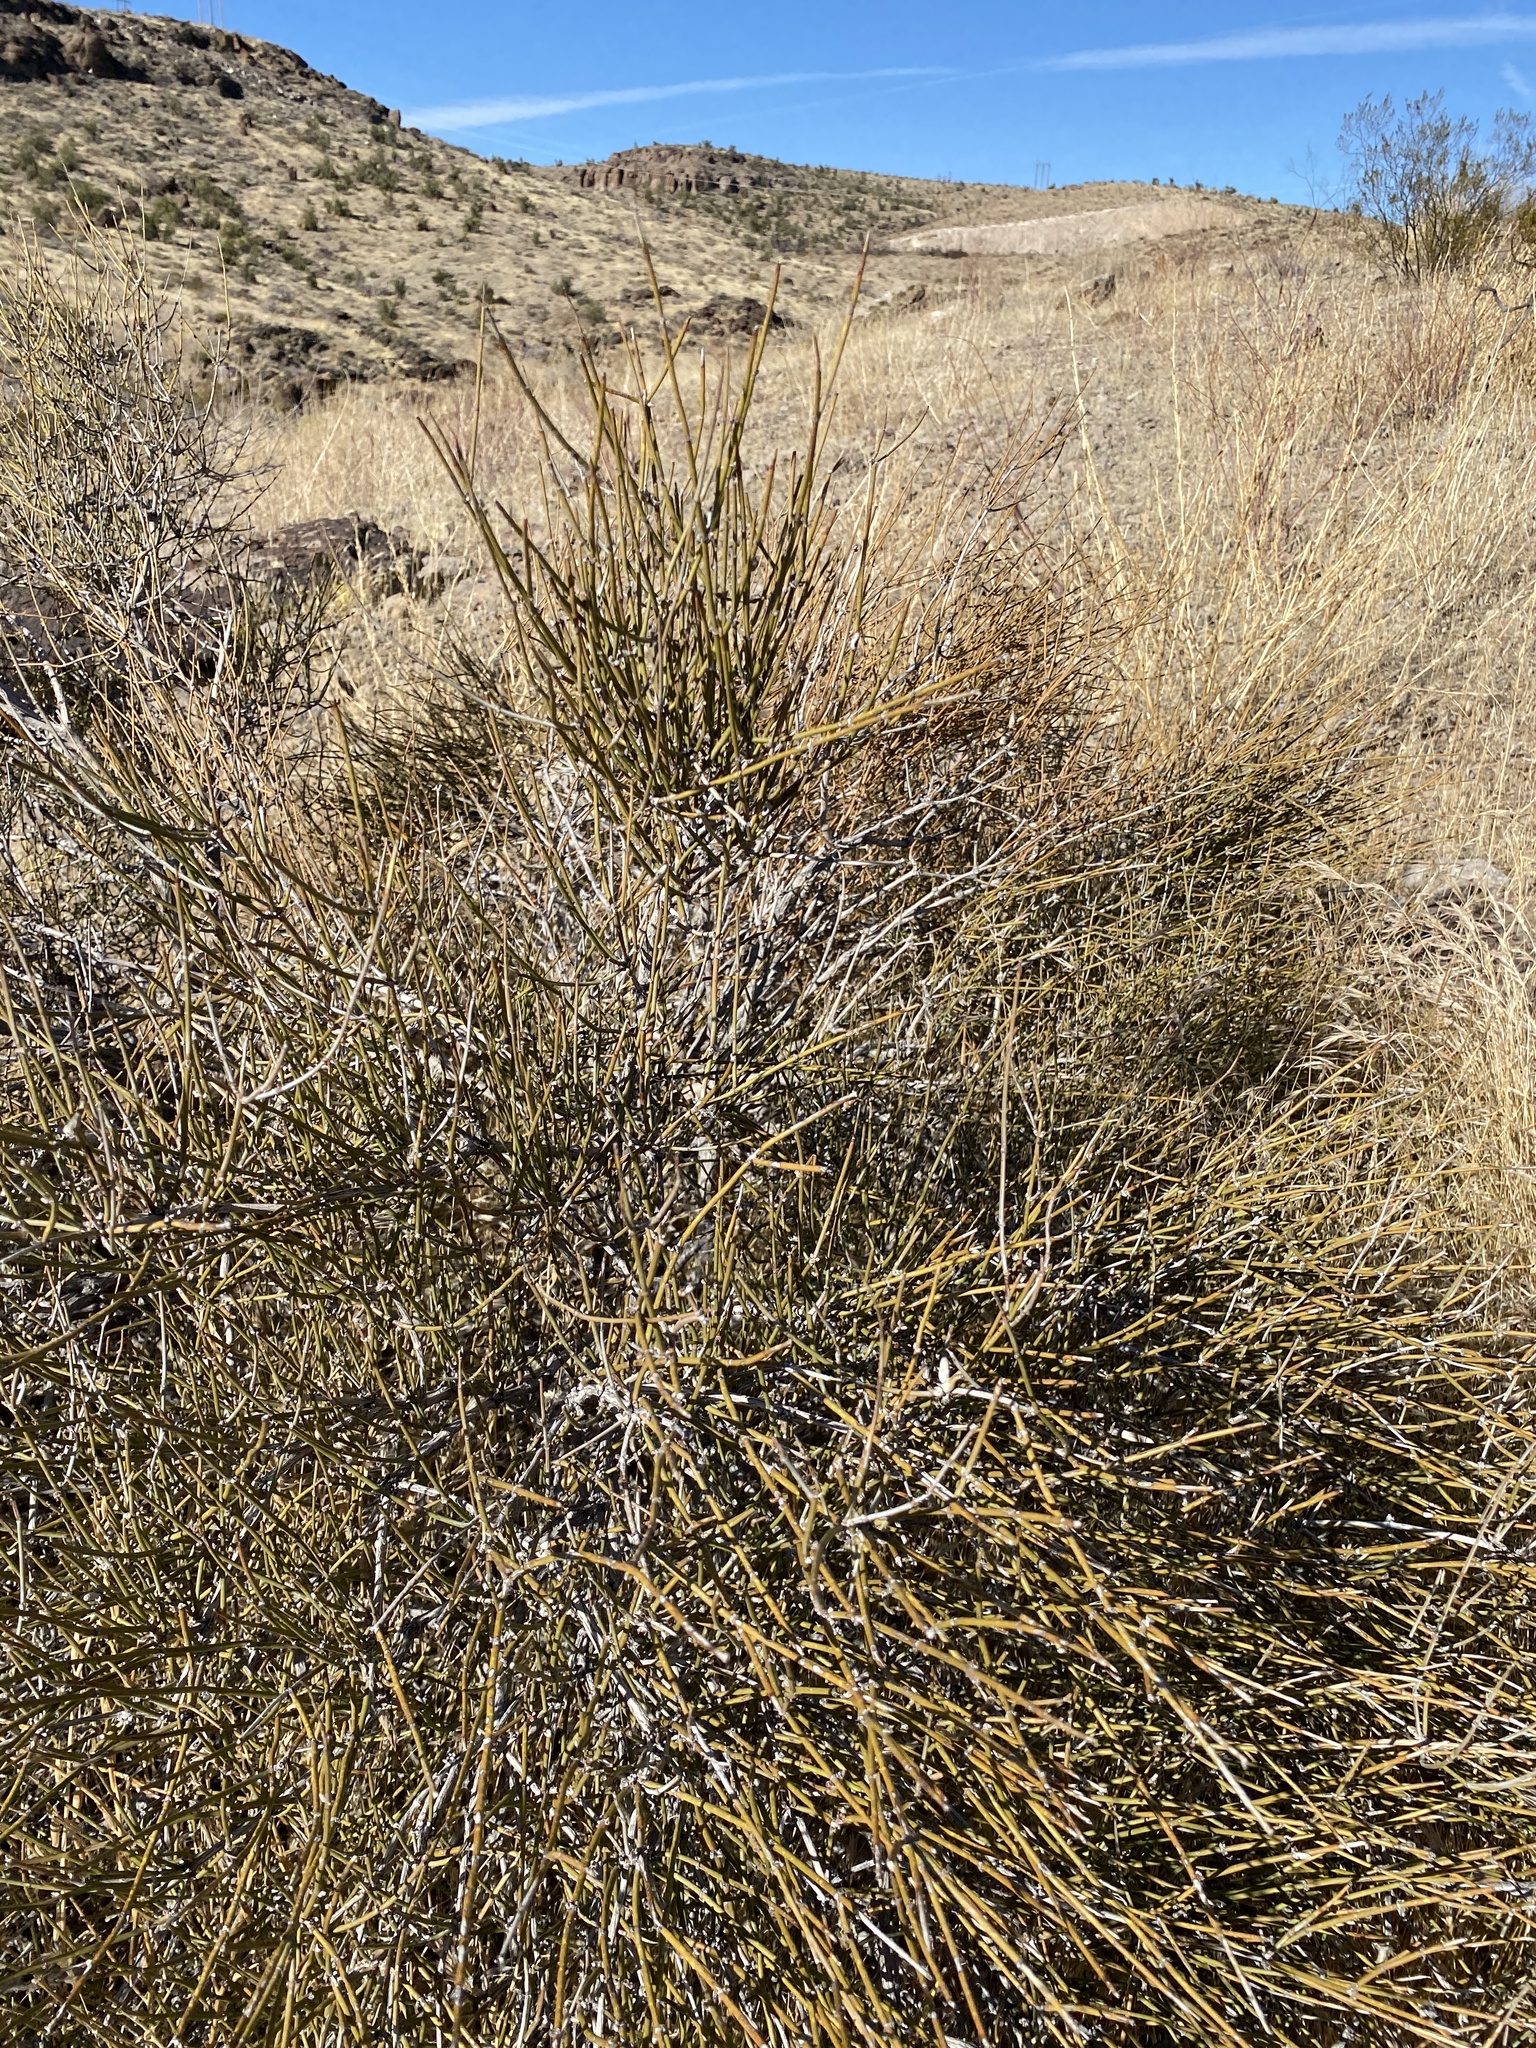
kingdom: Plantae
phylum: Tracheophyta
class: Gnetopsida
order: Ephedrales
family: Ephedraceae
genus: Ephedra
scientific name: Ephedra trifurca
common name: Mexican-tea
